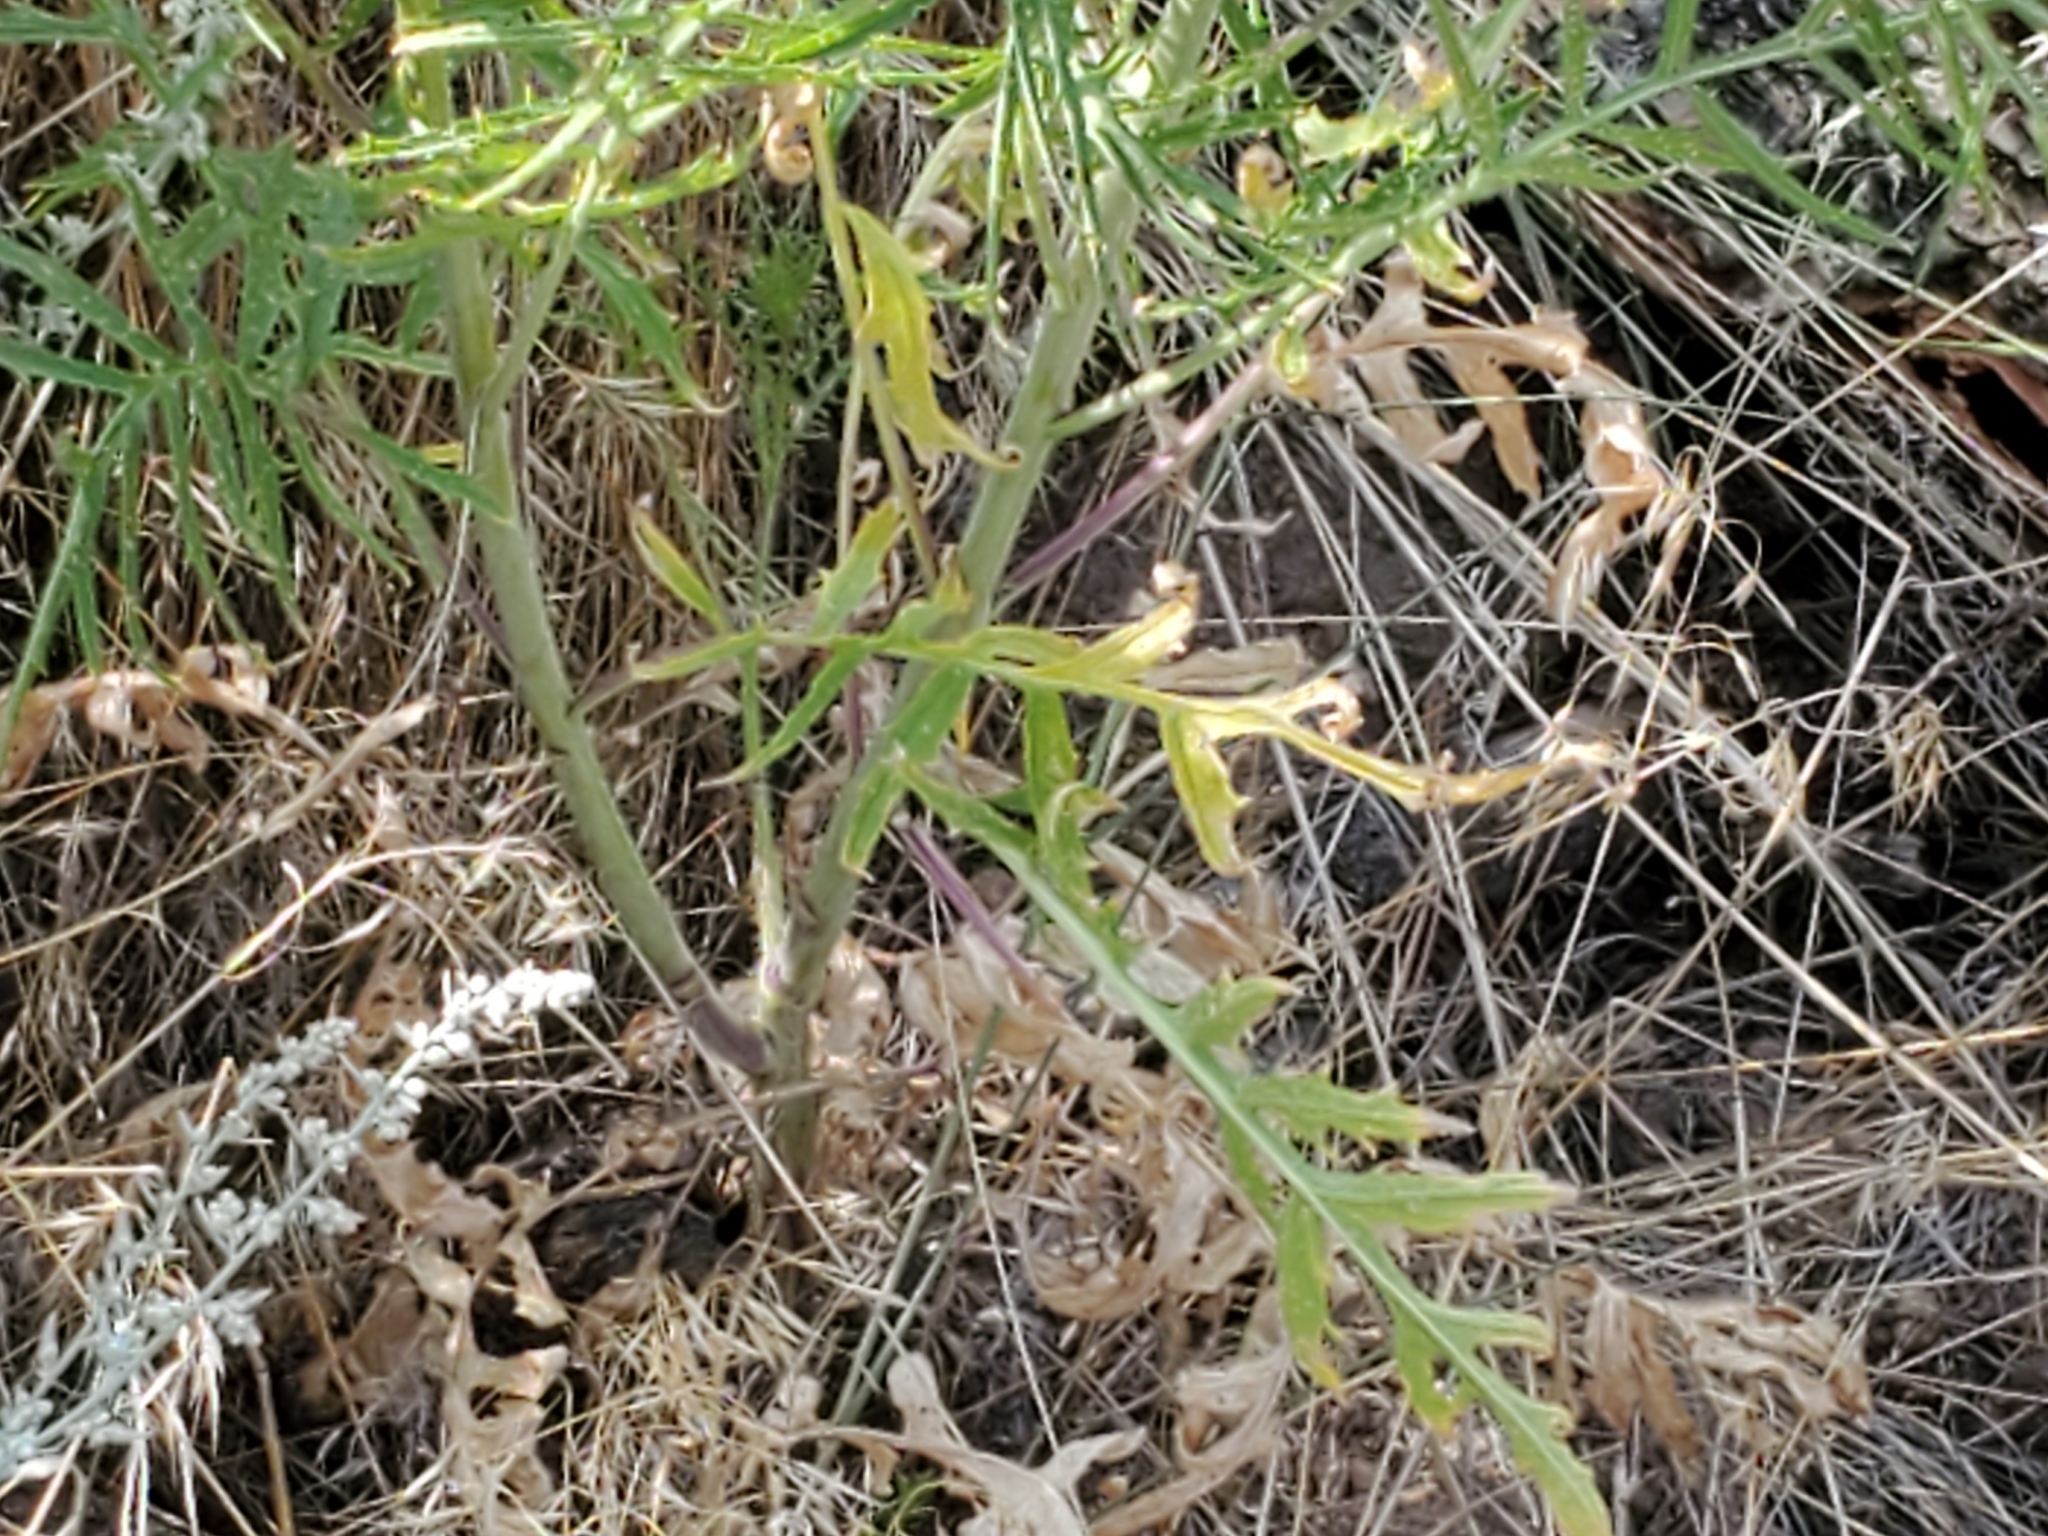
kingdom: Plantae
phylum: Tracheophyta
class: Magnoliopsida
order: Brassicales
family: Brassicaceae
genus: Sisymbrium
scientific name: Sisymbrium altissimum
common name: Tall rocket
